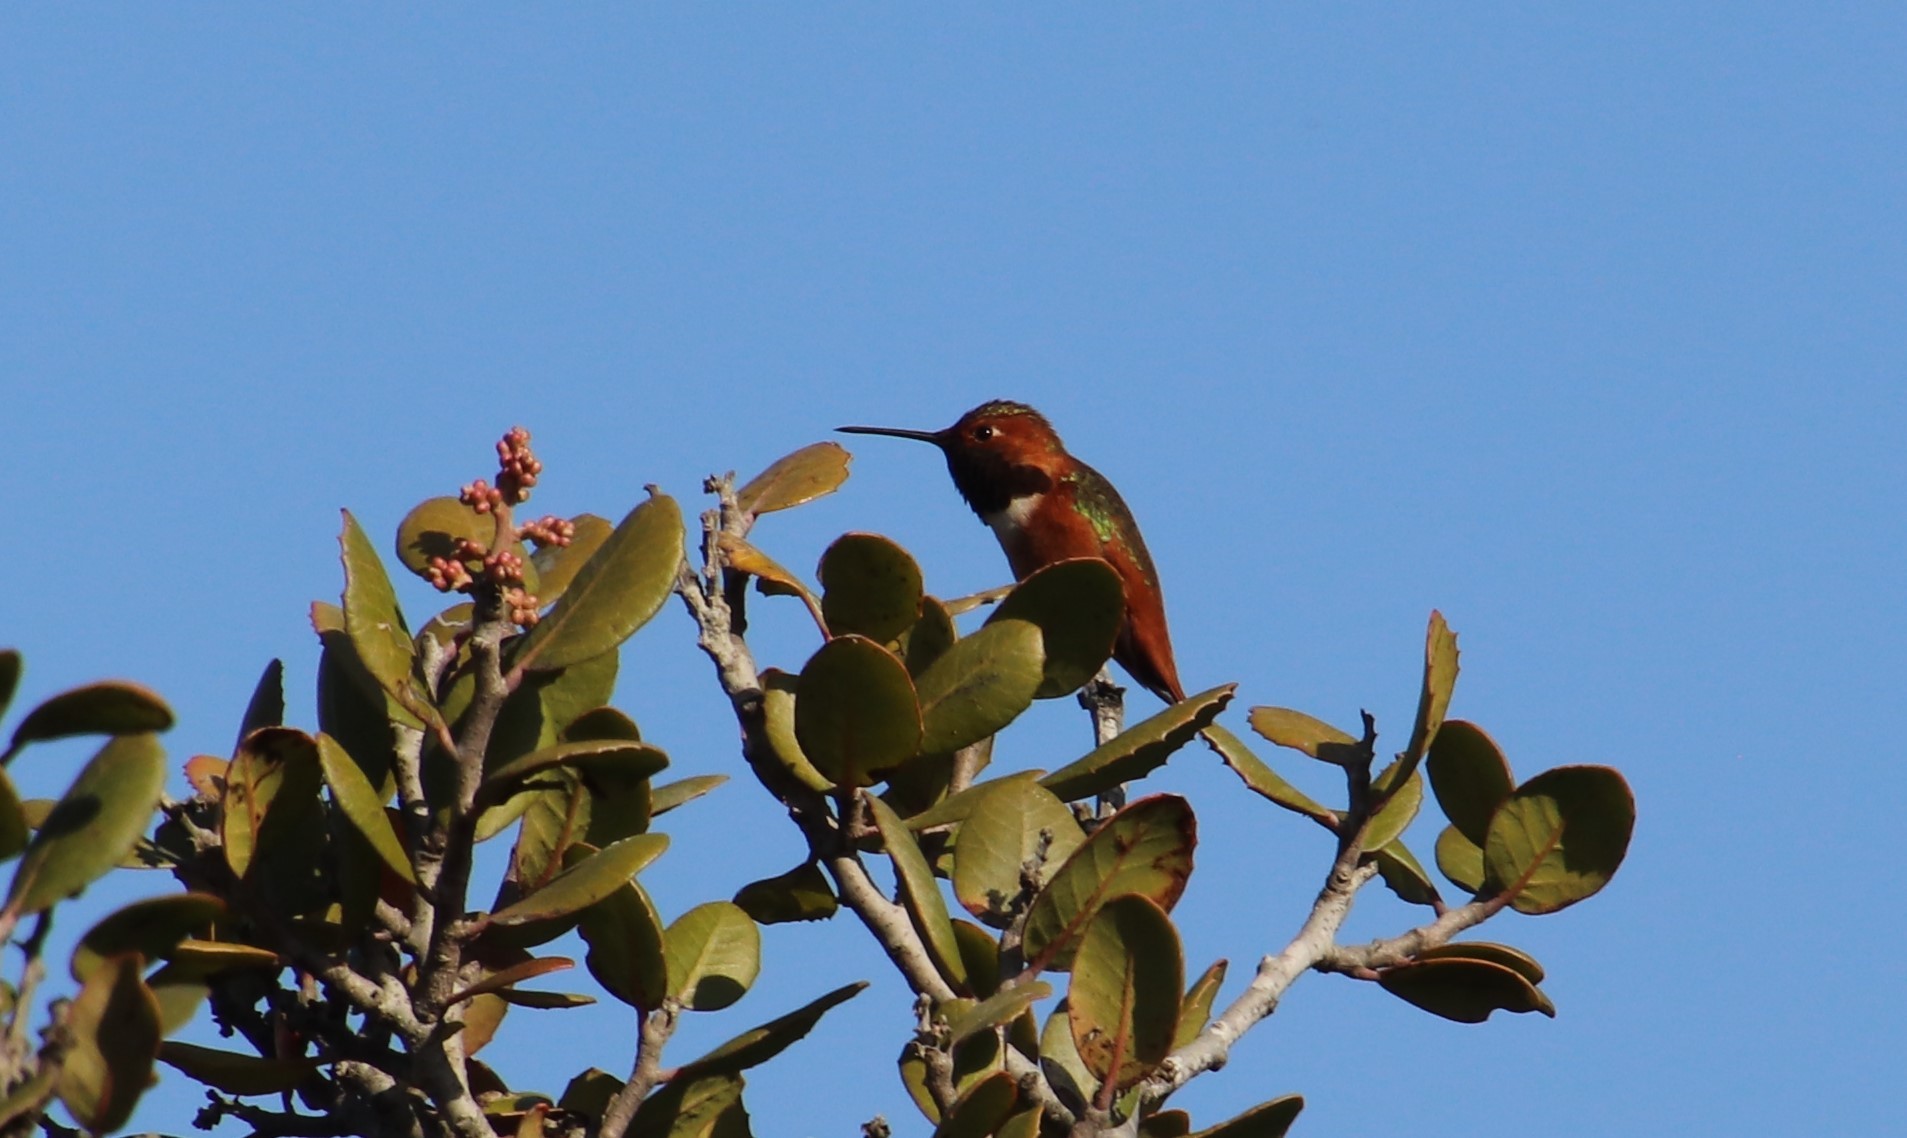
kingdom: Animalia
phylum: Chordata
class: Aves
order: Apodiformes
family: Trochilidae
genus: Selasphorus
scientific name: Selasphorus sasin
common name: Allen's hummingbird
